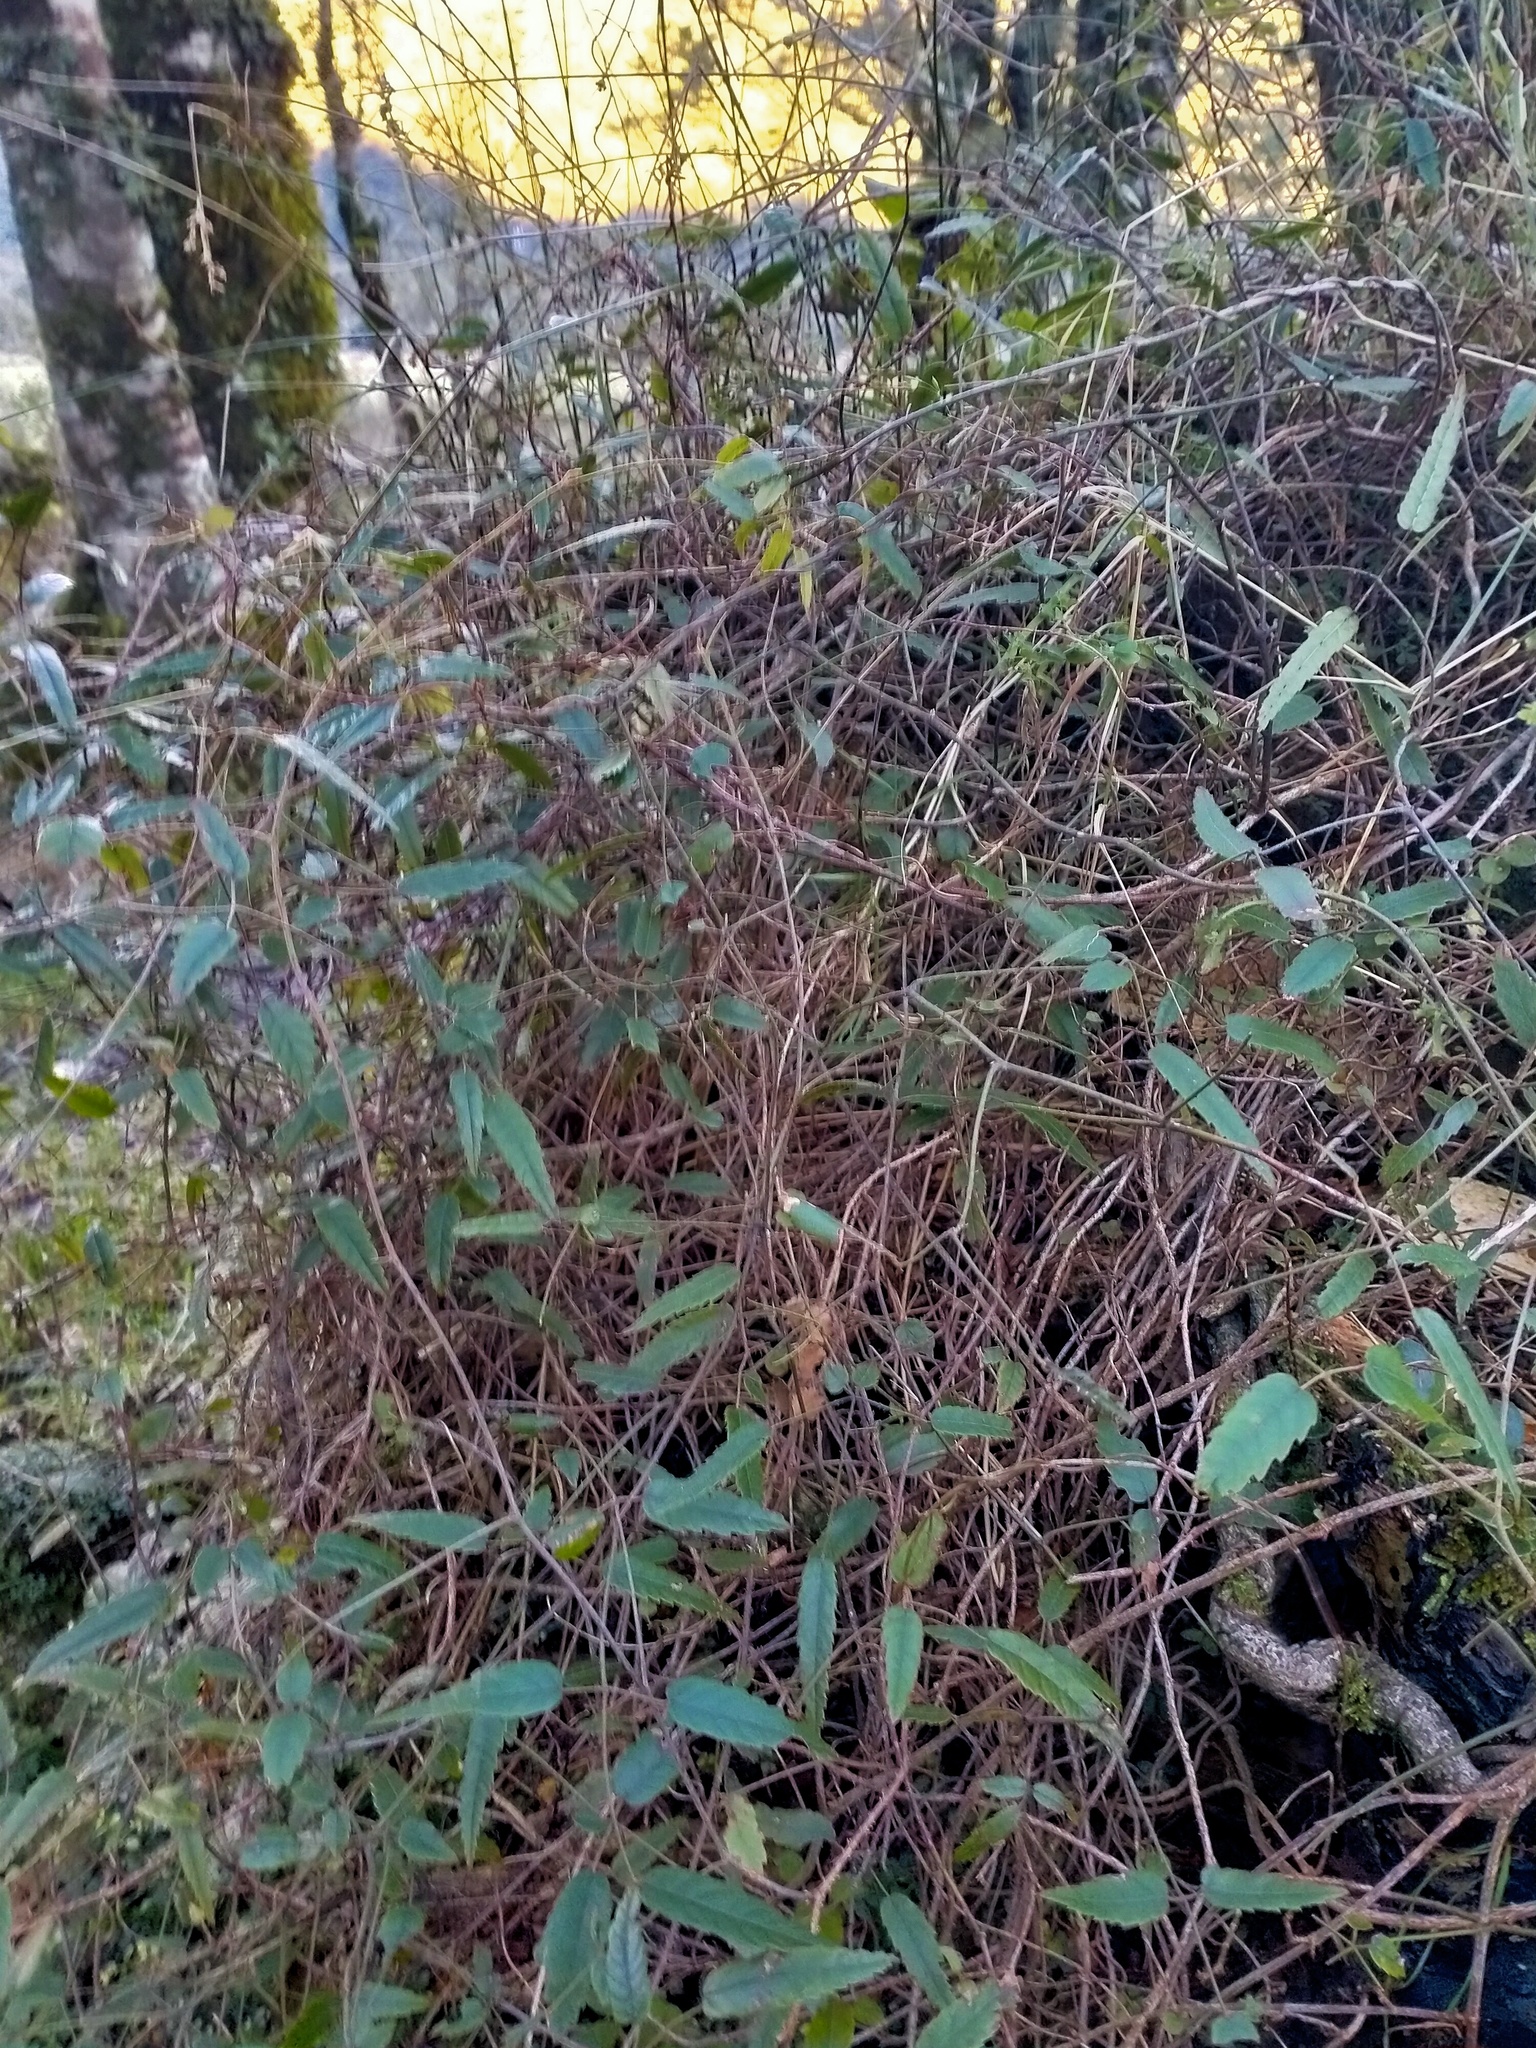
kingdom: Plantae
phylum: Tracheophyta
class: Magnoliopsida
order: Rosales
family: Rosaceae
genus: Rubus
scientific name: Rubus schmidelioides
